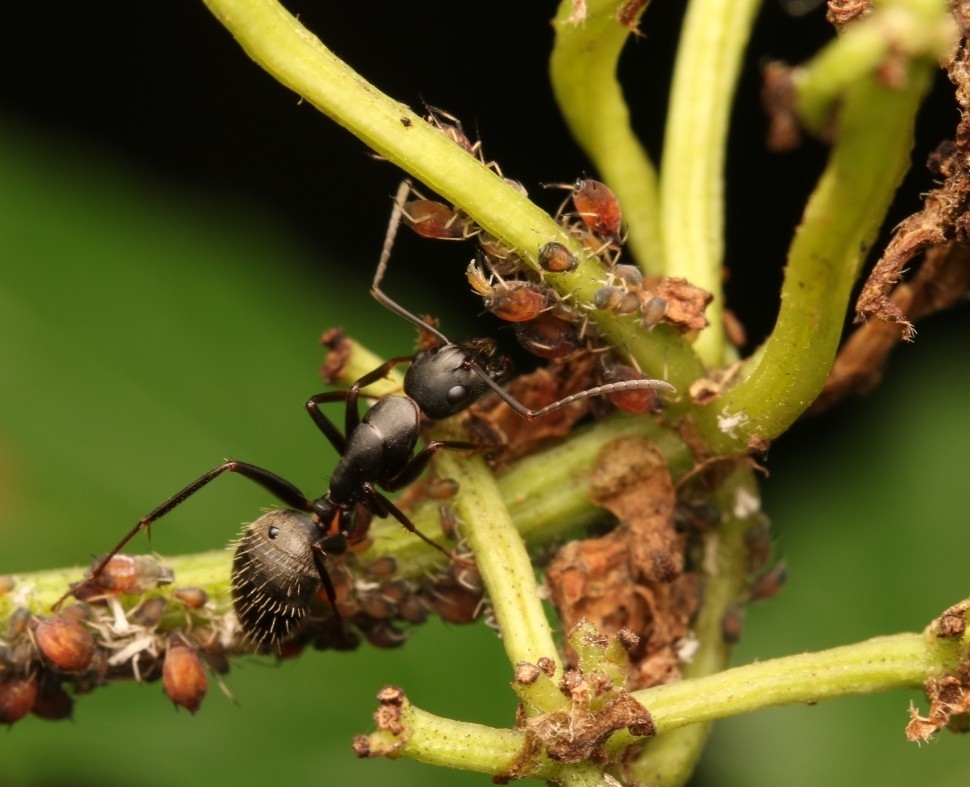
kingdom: Animalia
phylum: Arthropoda
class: Insecta
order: Hymenoptera
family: Formicidae
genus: Camponotus
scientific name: Camponotus pennsylvanicus
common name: Black carpenter ant
